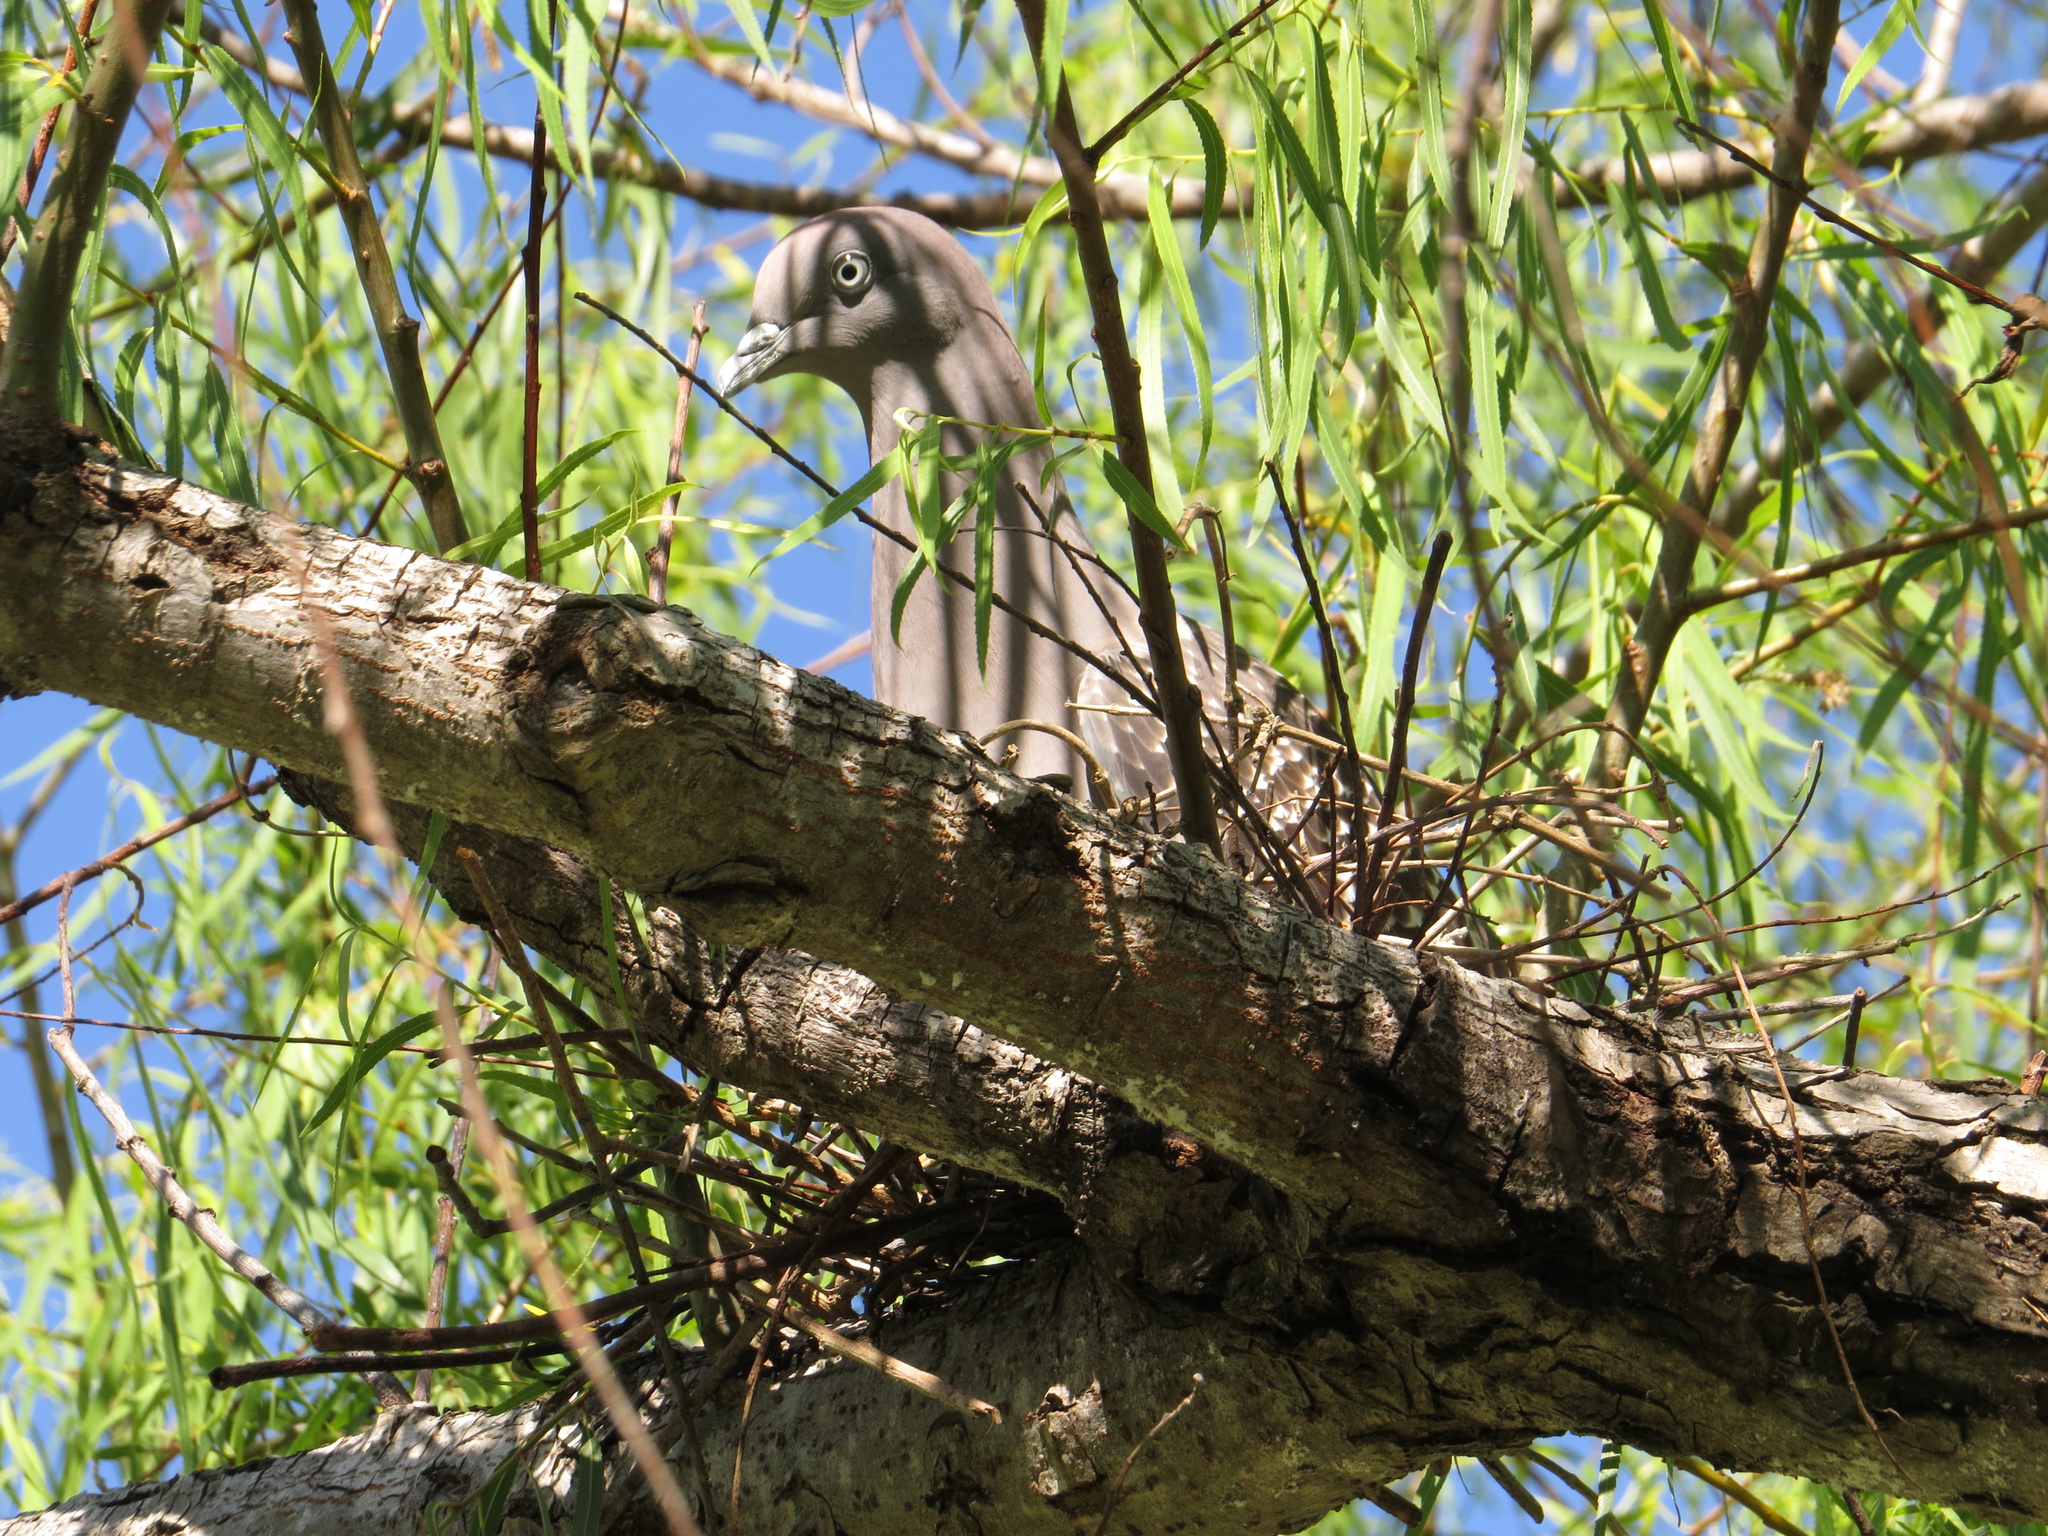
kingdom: Animalia
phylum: Chordata
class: Aves
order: Columbiformes
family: Columbidae
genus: Patagioenas
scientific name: Patagioenas maculosa
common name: Spot-winged pigeon
